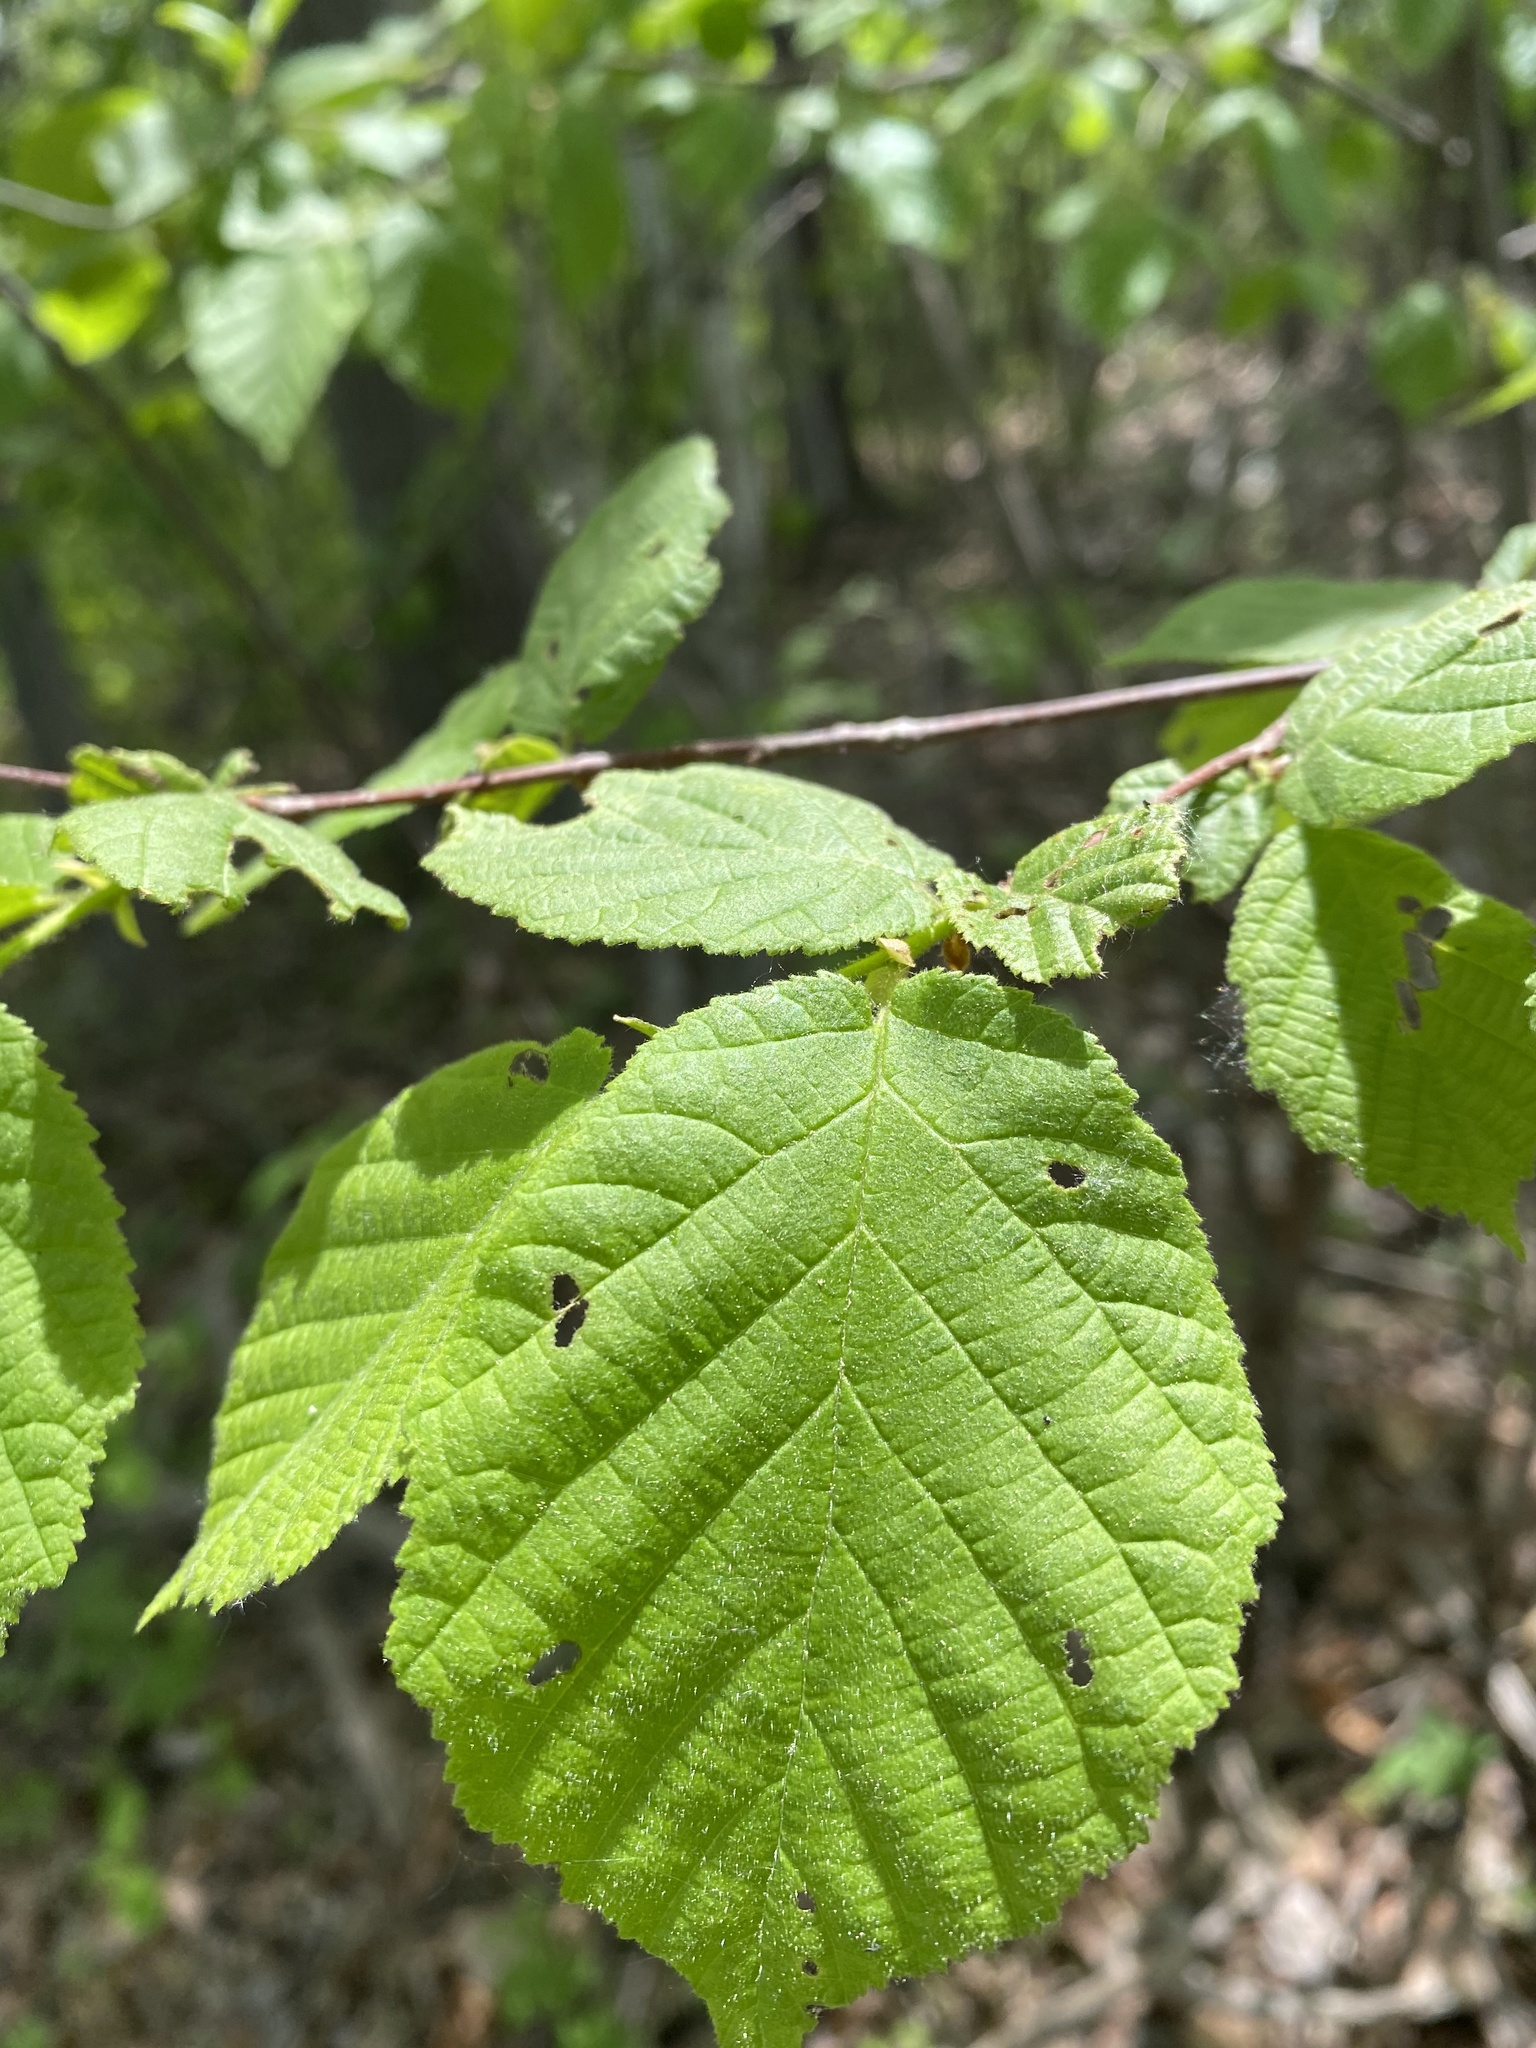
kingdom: Plantae
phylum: Tracheophyta
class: Magnoliopsida
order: Fagales
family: Betulaceae
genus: Corylus
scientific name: Corylus americana
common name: American hazel
